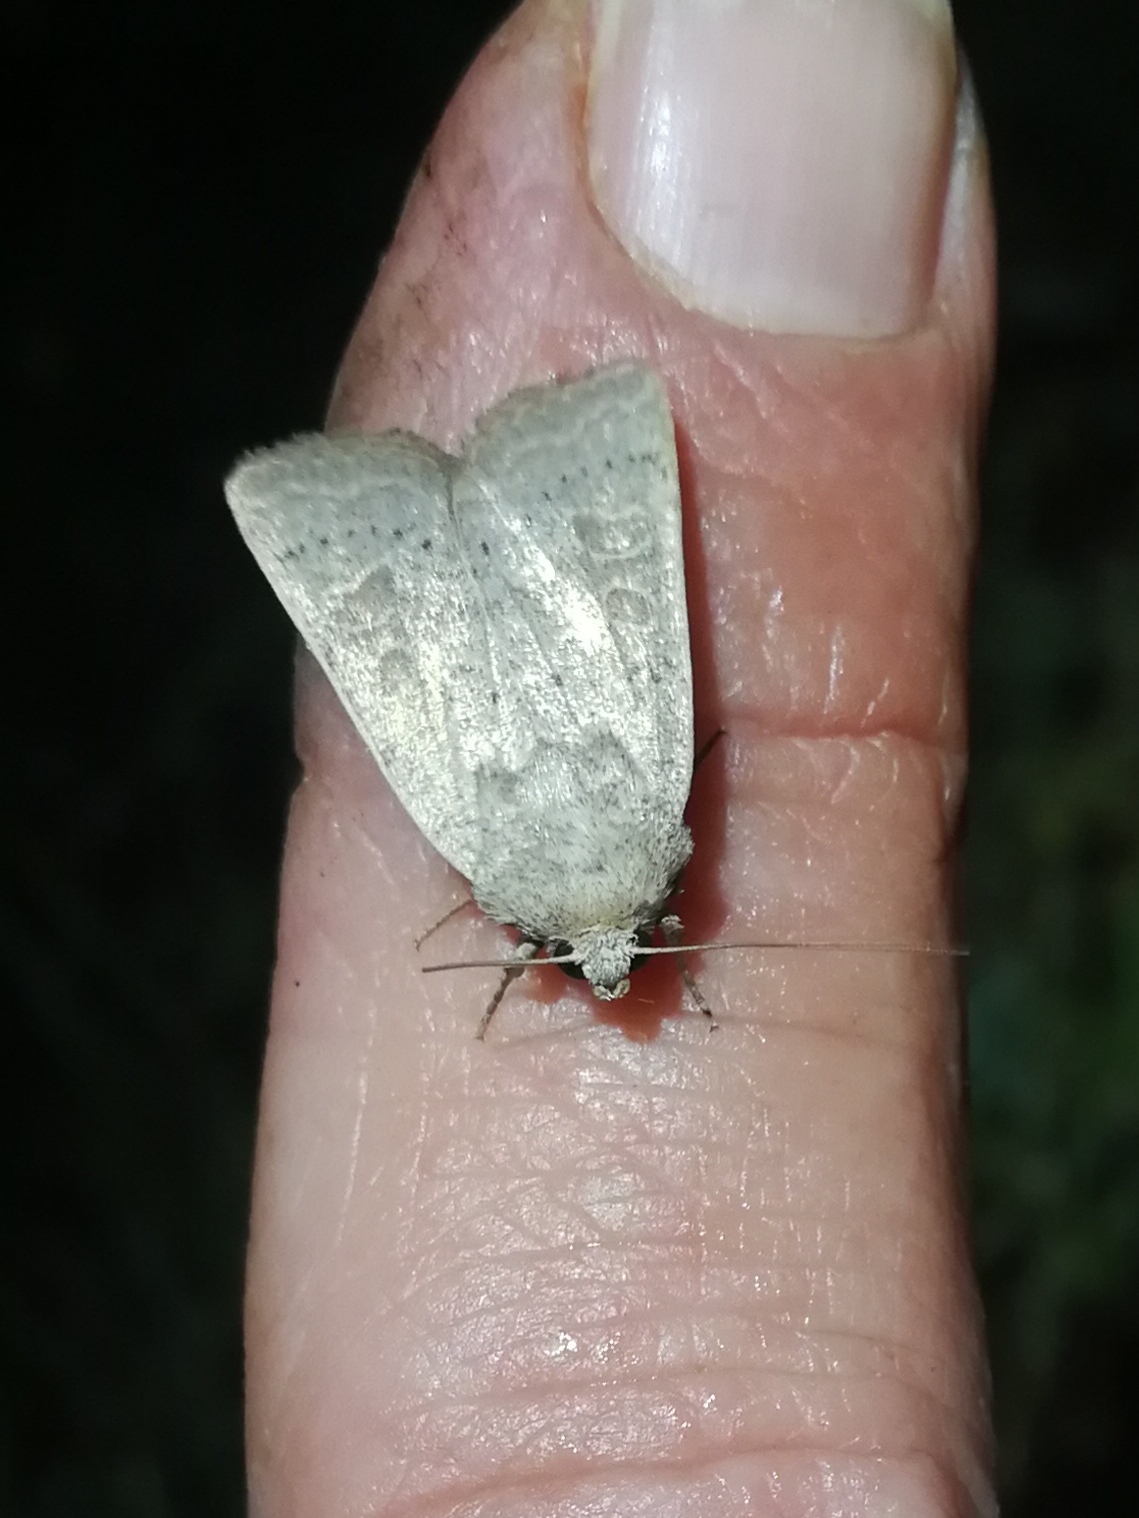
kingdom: Animalia
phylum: Arthropoda
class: Insecta
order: Lepidoptera
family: Noctuidae
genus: Hoplodrina
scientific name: Hoplodrina ambigua
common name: Vine's rustic
